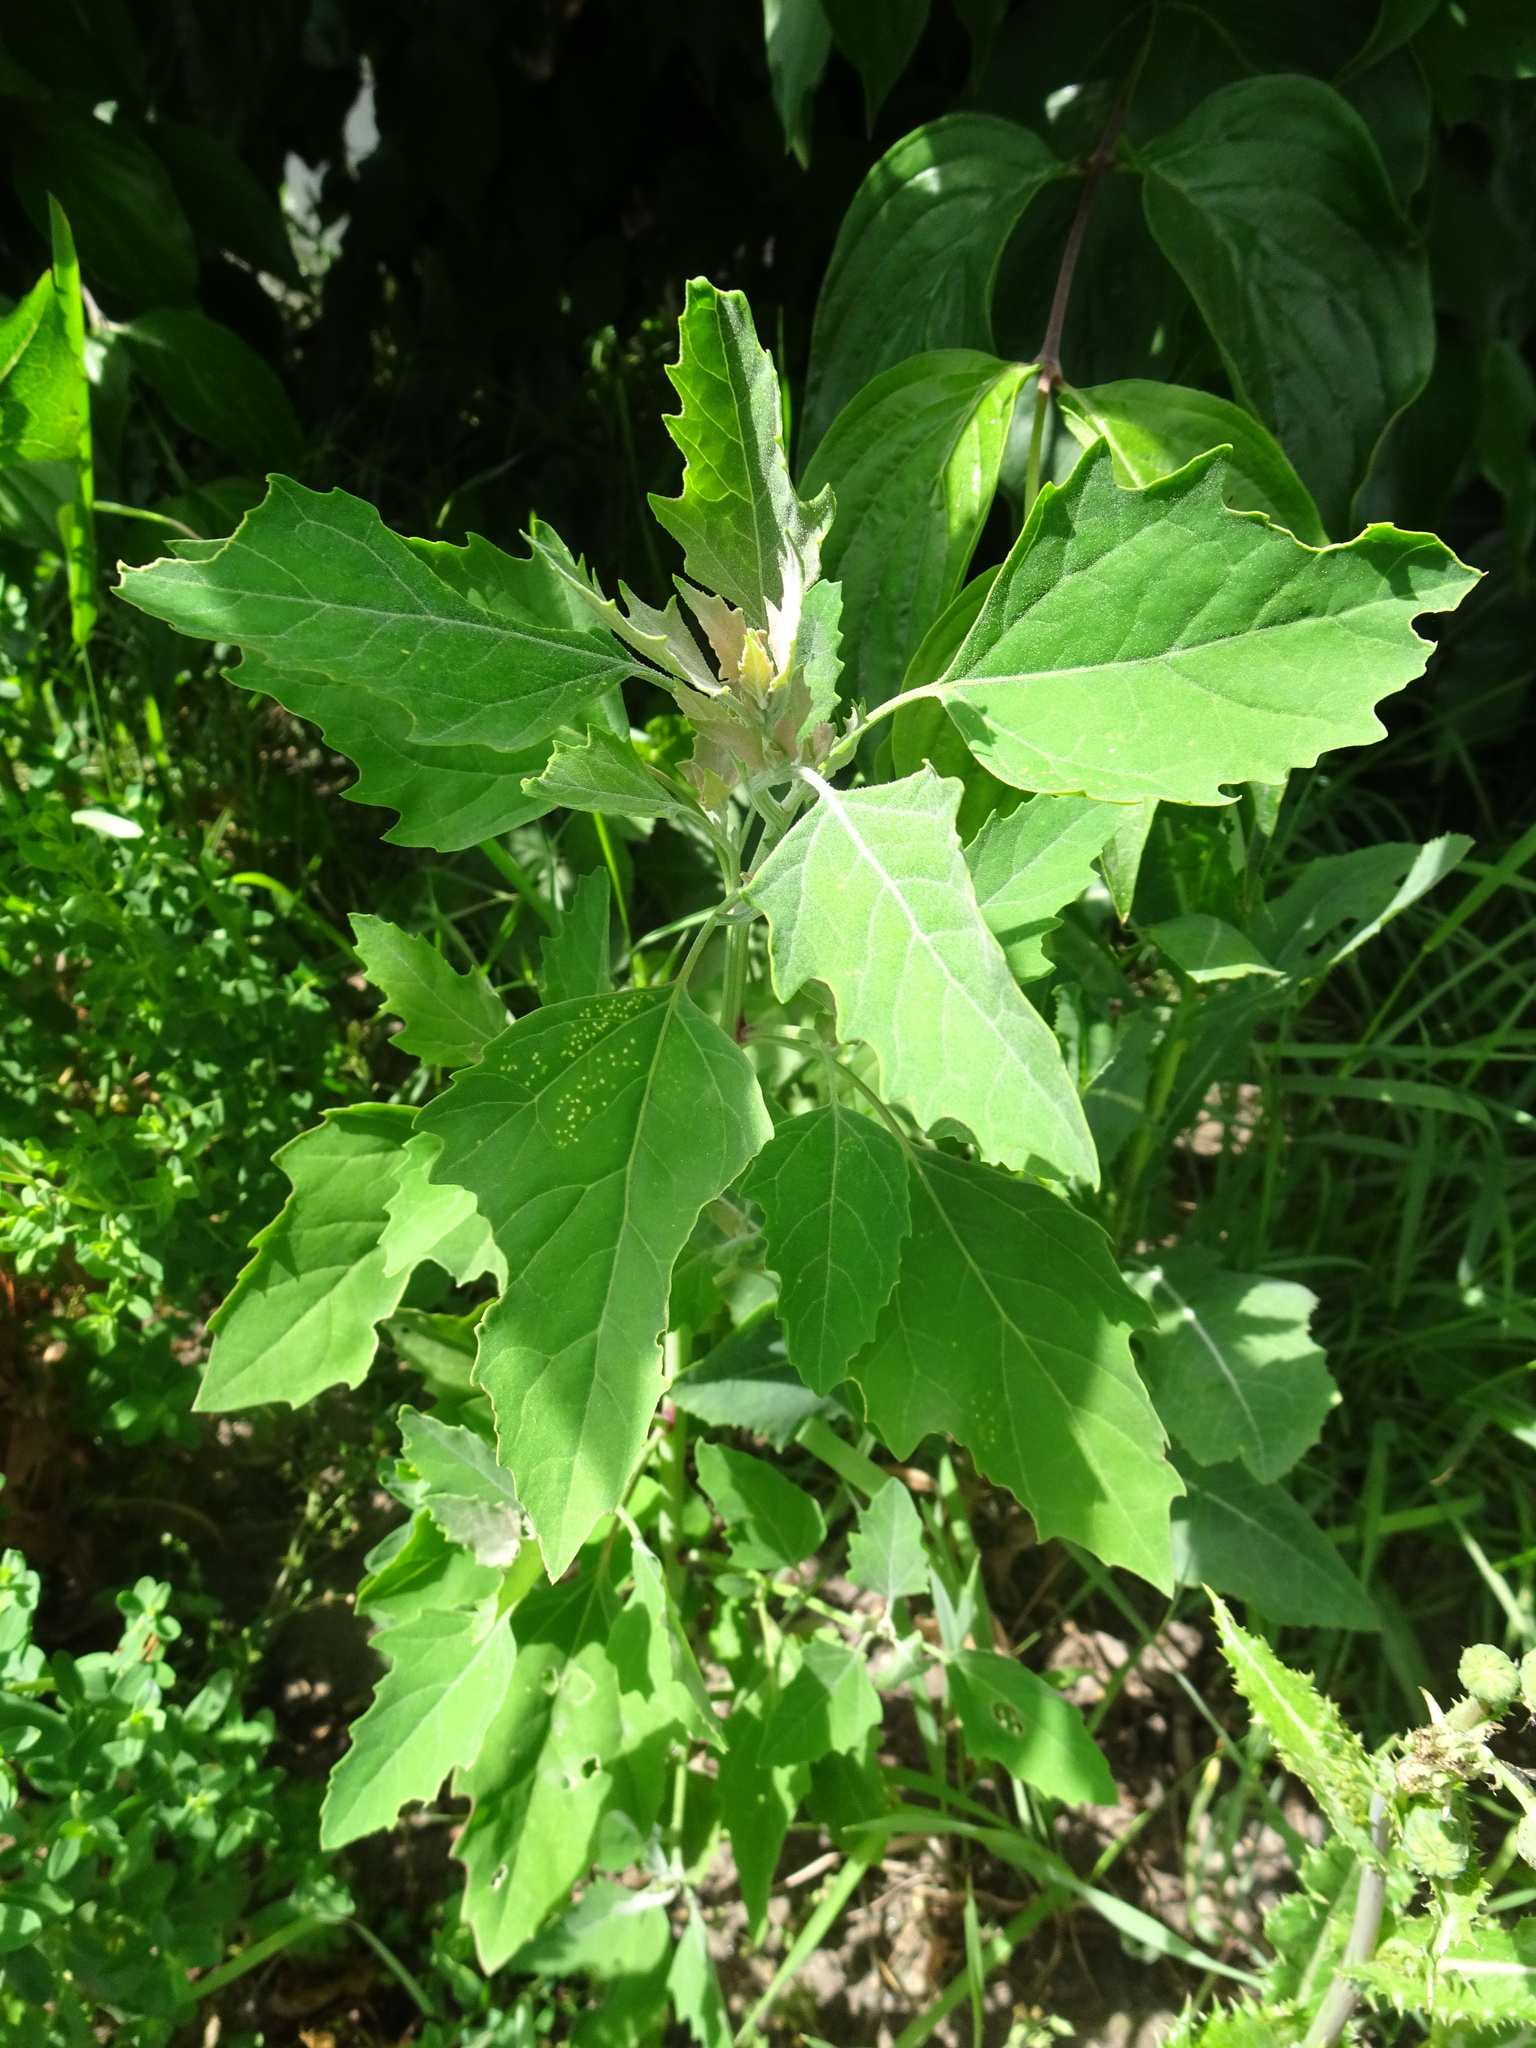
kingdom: Plantae
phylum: Tracheophyta
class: Magnoliopsida
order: Caryophyllales
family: Amaranthaceae
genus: Chenopodium
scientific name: Chenopodium album
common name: Fat-hen
